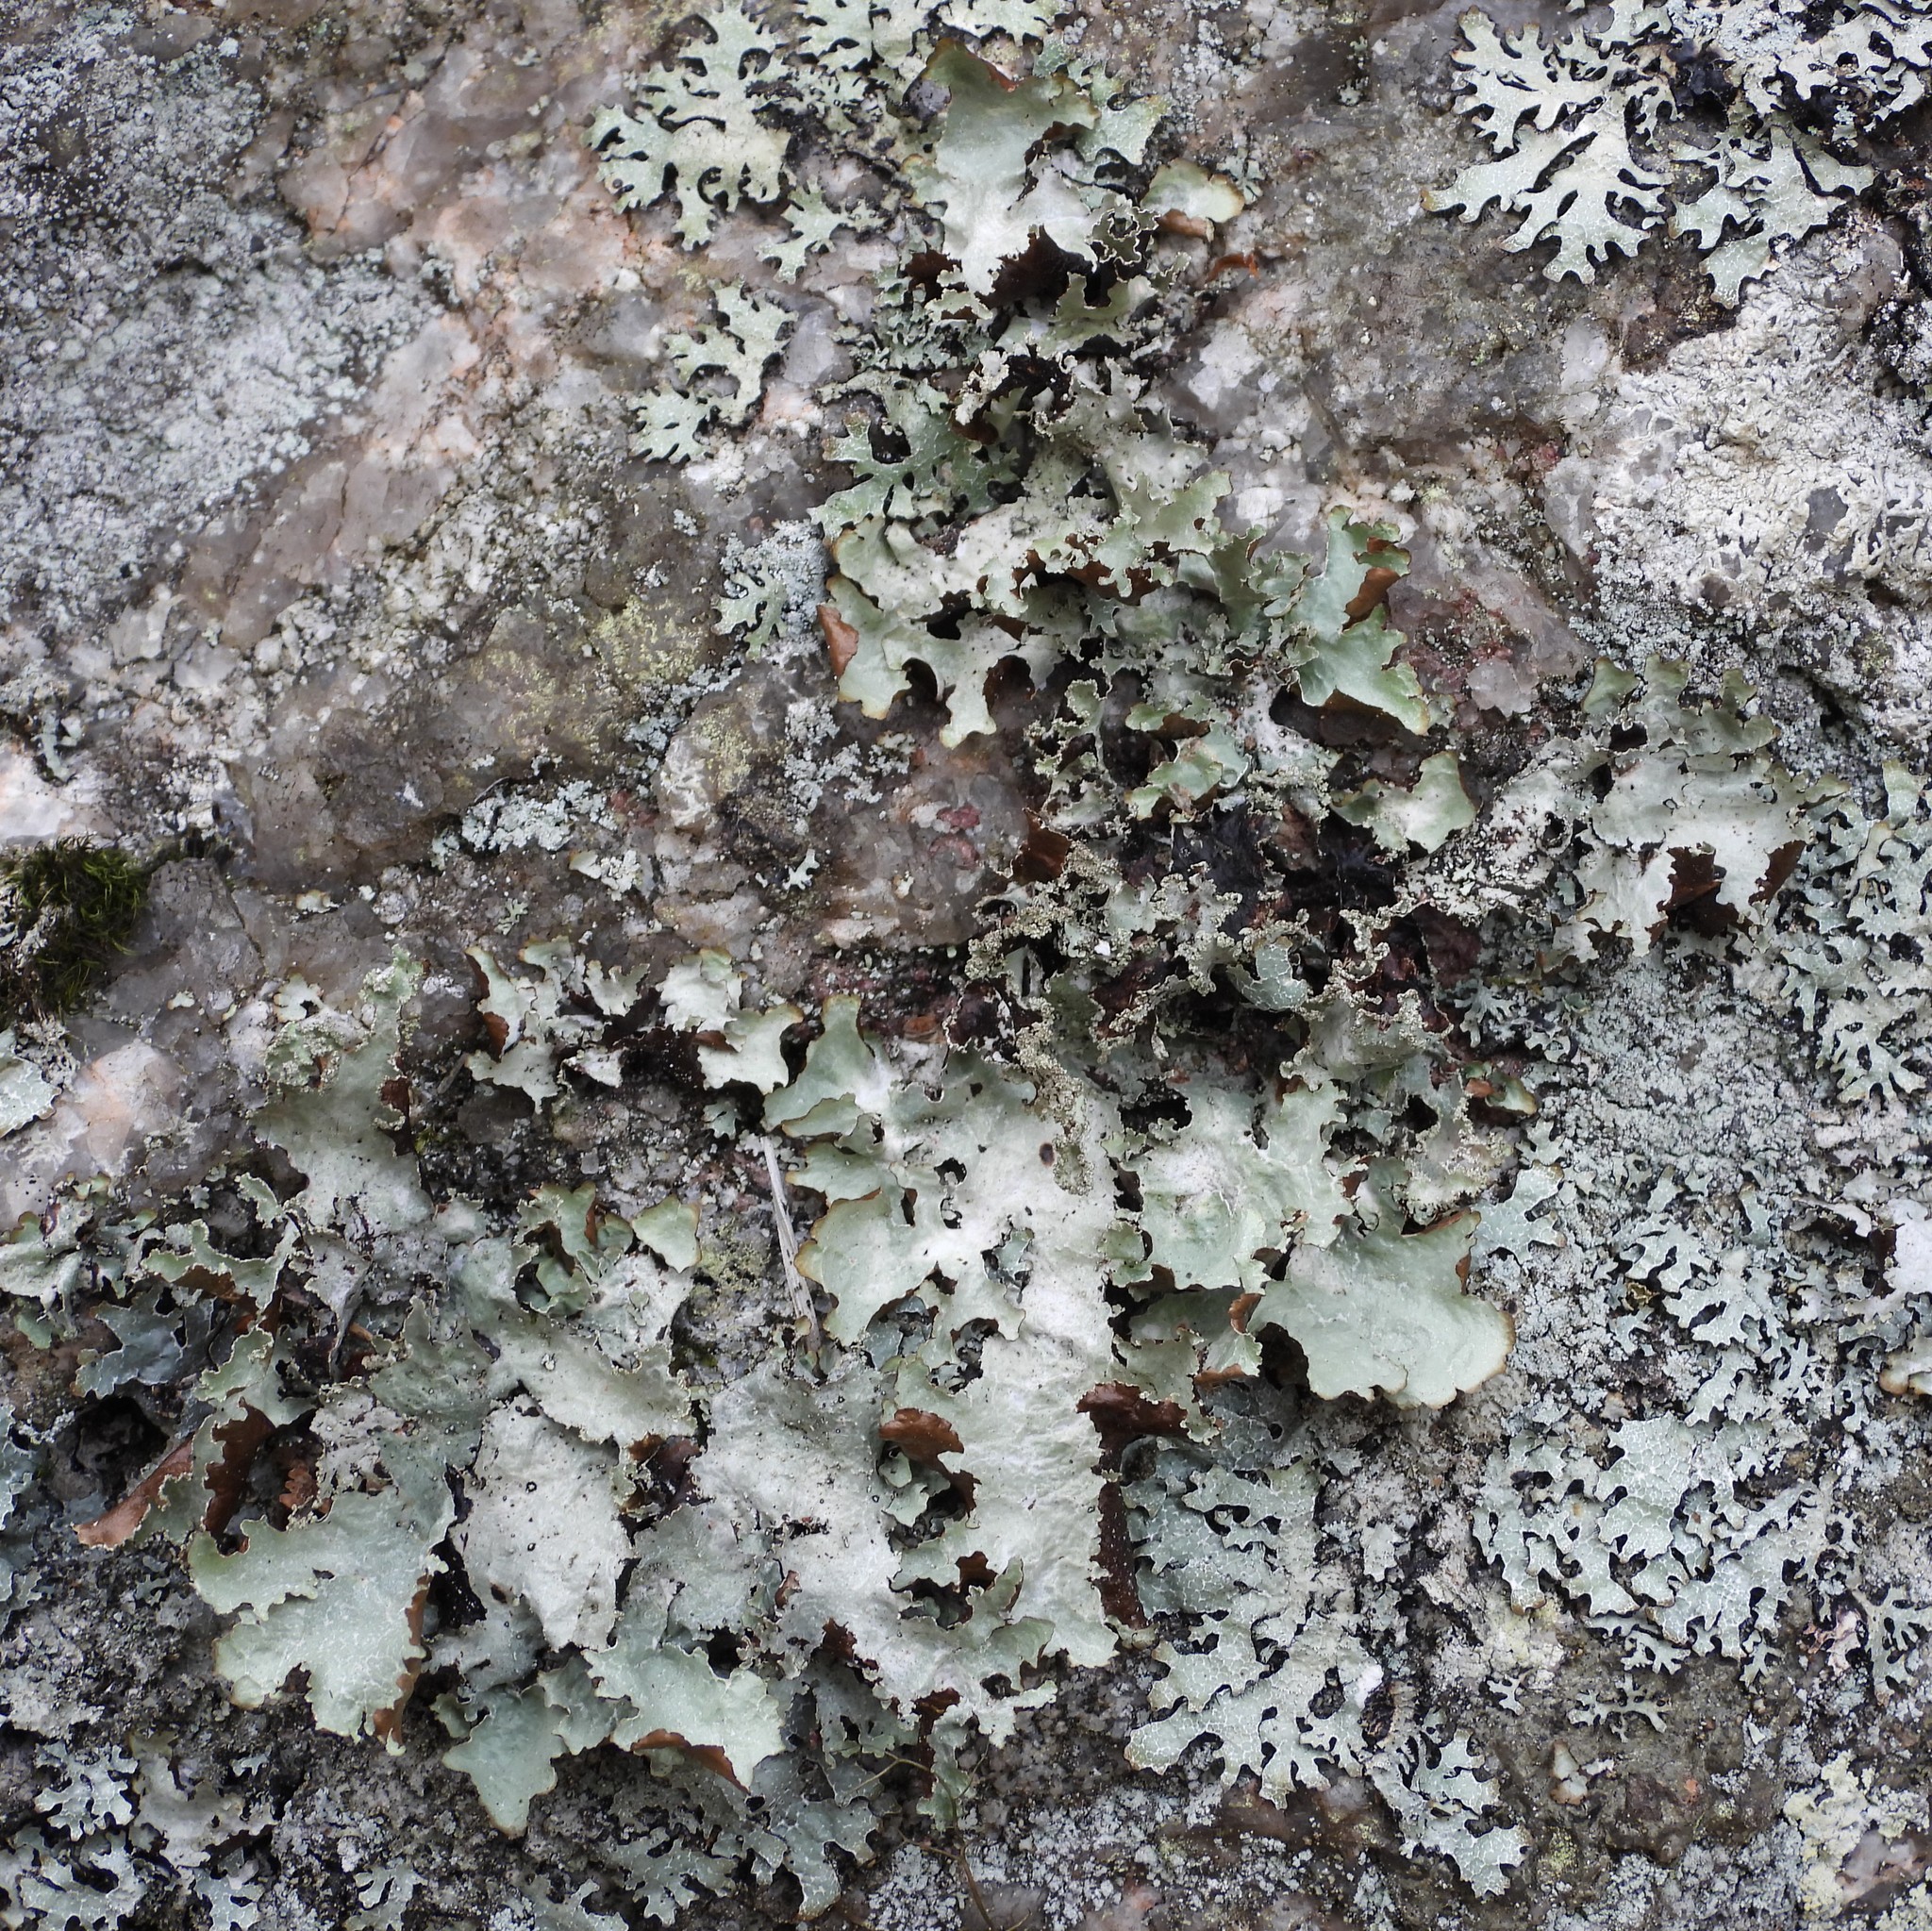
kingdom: Fungi
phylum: Ascomycota
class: Lecanoromycetes
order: Lecanorales
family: Parmeliaceae
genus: Platismatia
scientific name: Platismatia glauca
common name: Varied rag lichen
